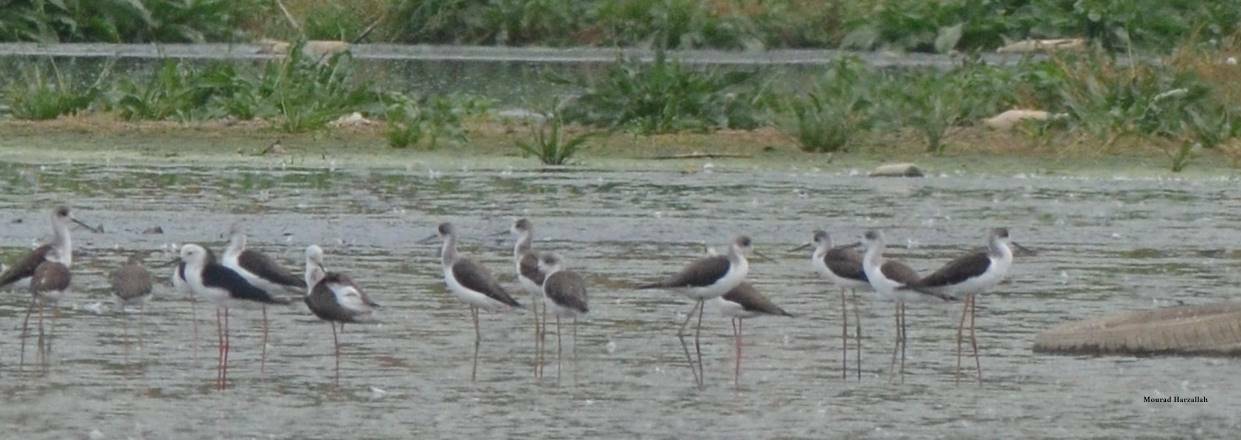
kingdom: Animalia
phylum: Chordata
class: Aves
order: Charadriiformes
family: Recurvirostridae
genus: Himantopus
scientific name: Himantopus himantopus
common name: Black-winged stilt
